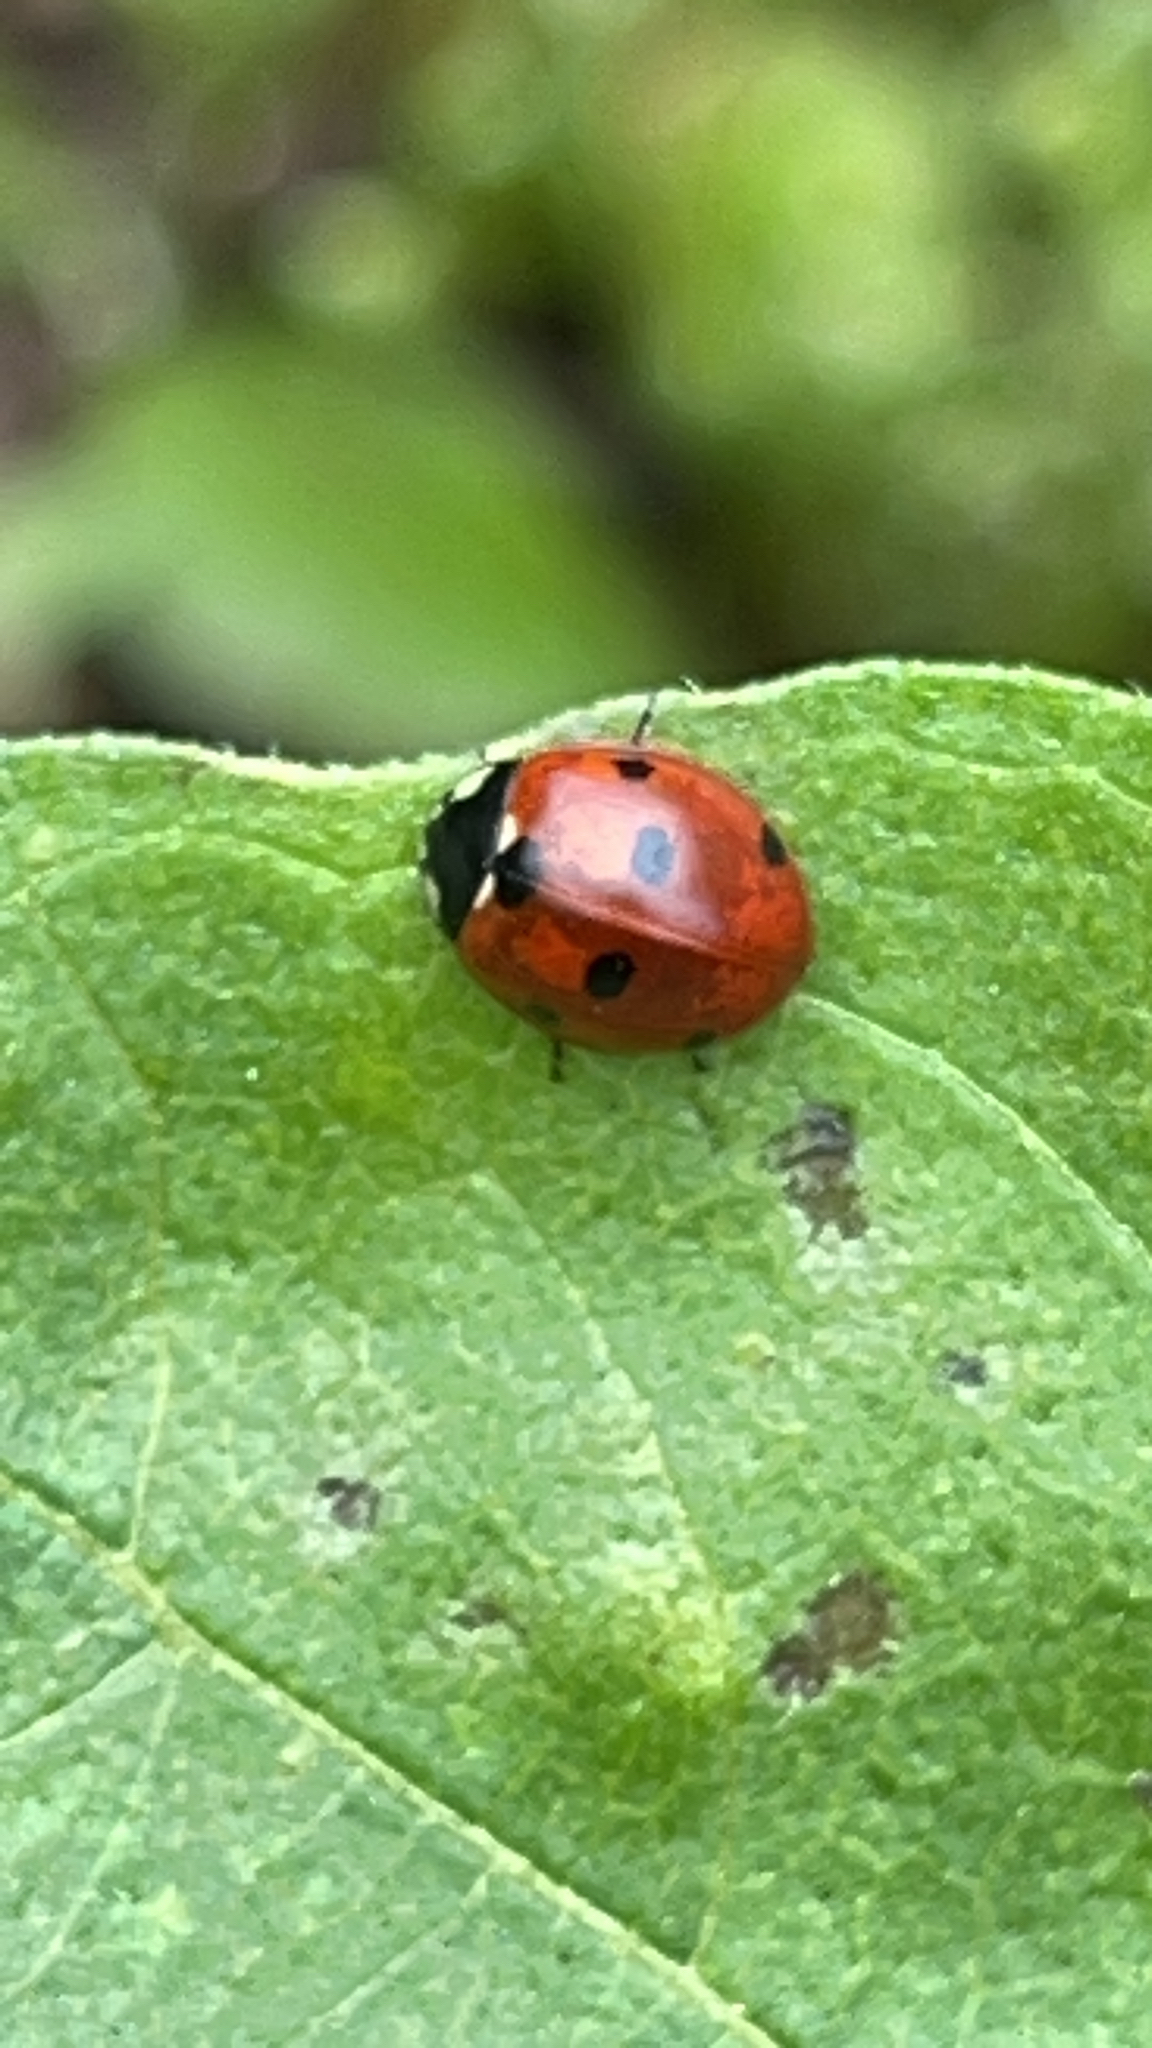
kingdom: Animalia
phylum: Arthropoda
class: Insecta
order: Coleoptera
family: Coccinellidae
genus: Coccinella
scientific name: Coccinella septempunctata
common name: Sevenspotted lady beetle
